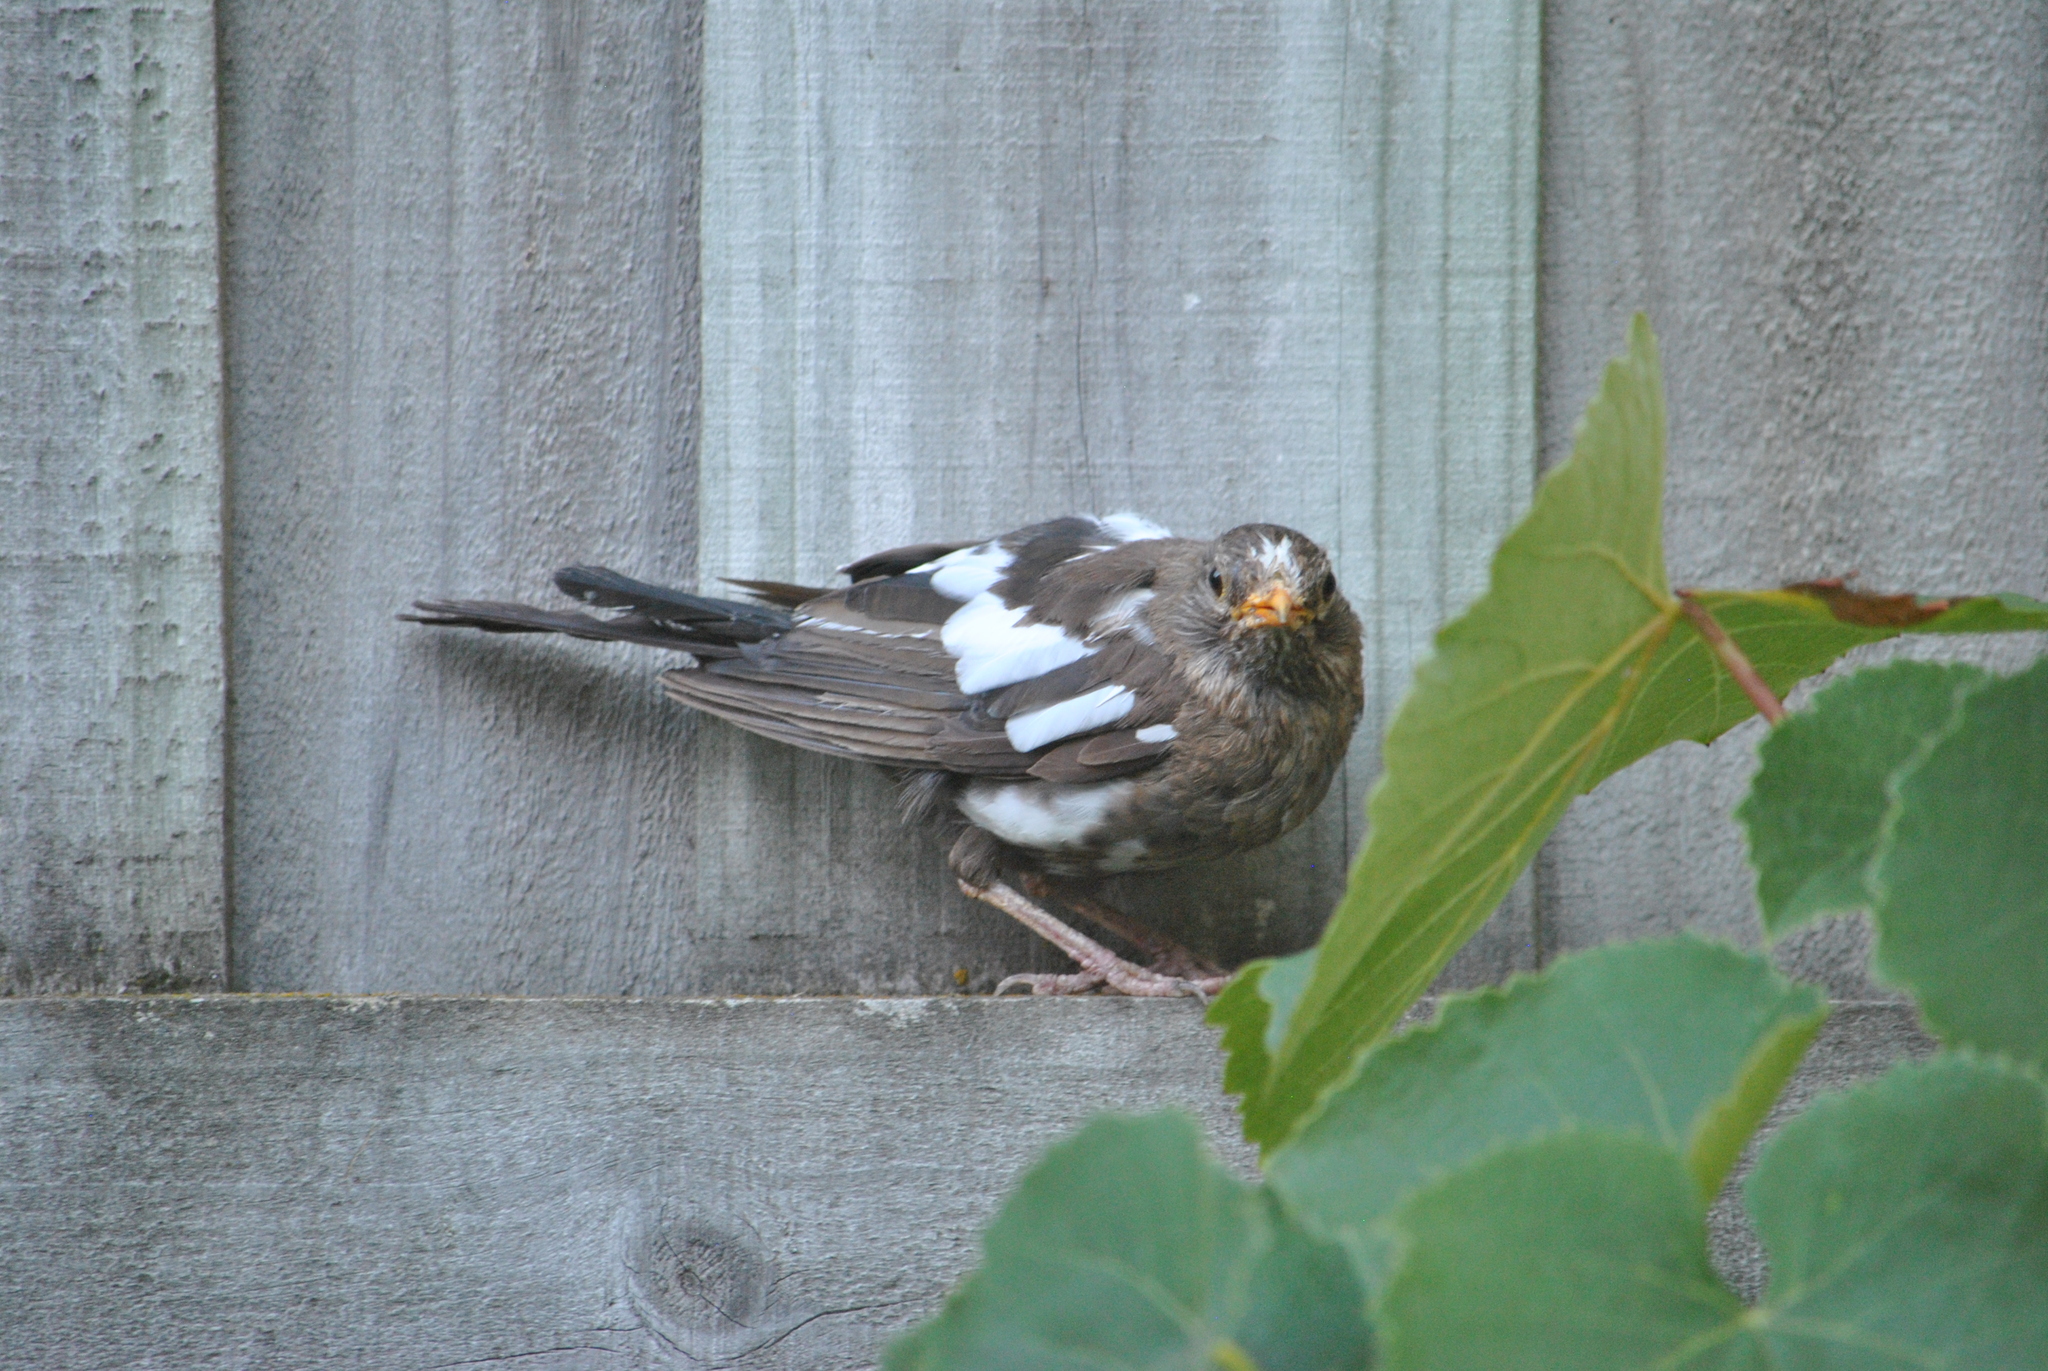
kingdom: Animalia
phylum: Chordata
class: Aves
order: Passeriformes
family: Turdidae
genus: Turdus
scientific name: Turdus merula
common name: Common blackbird
